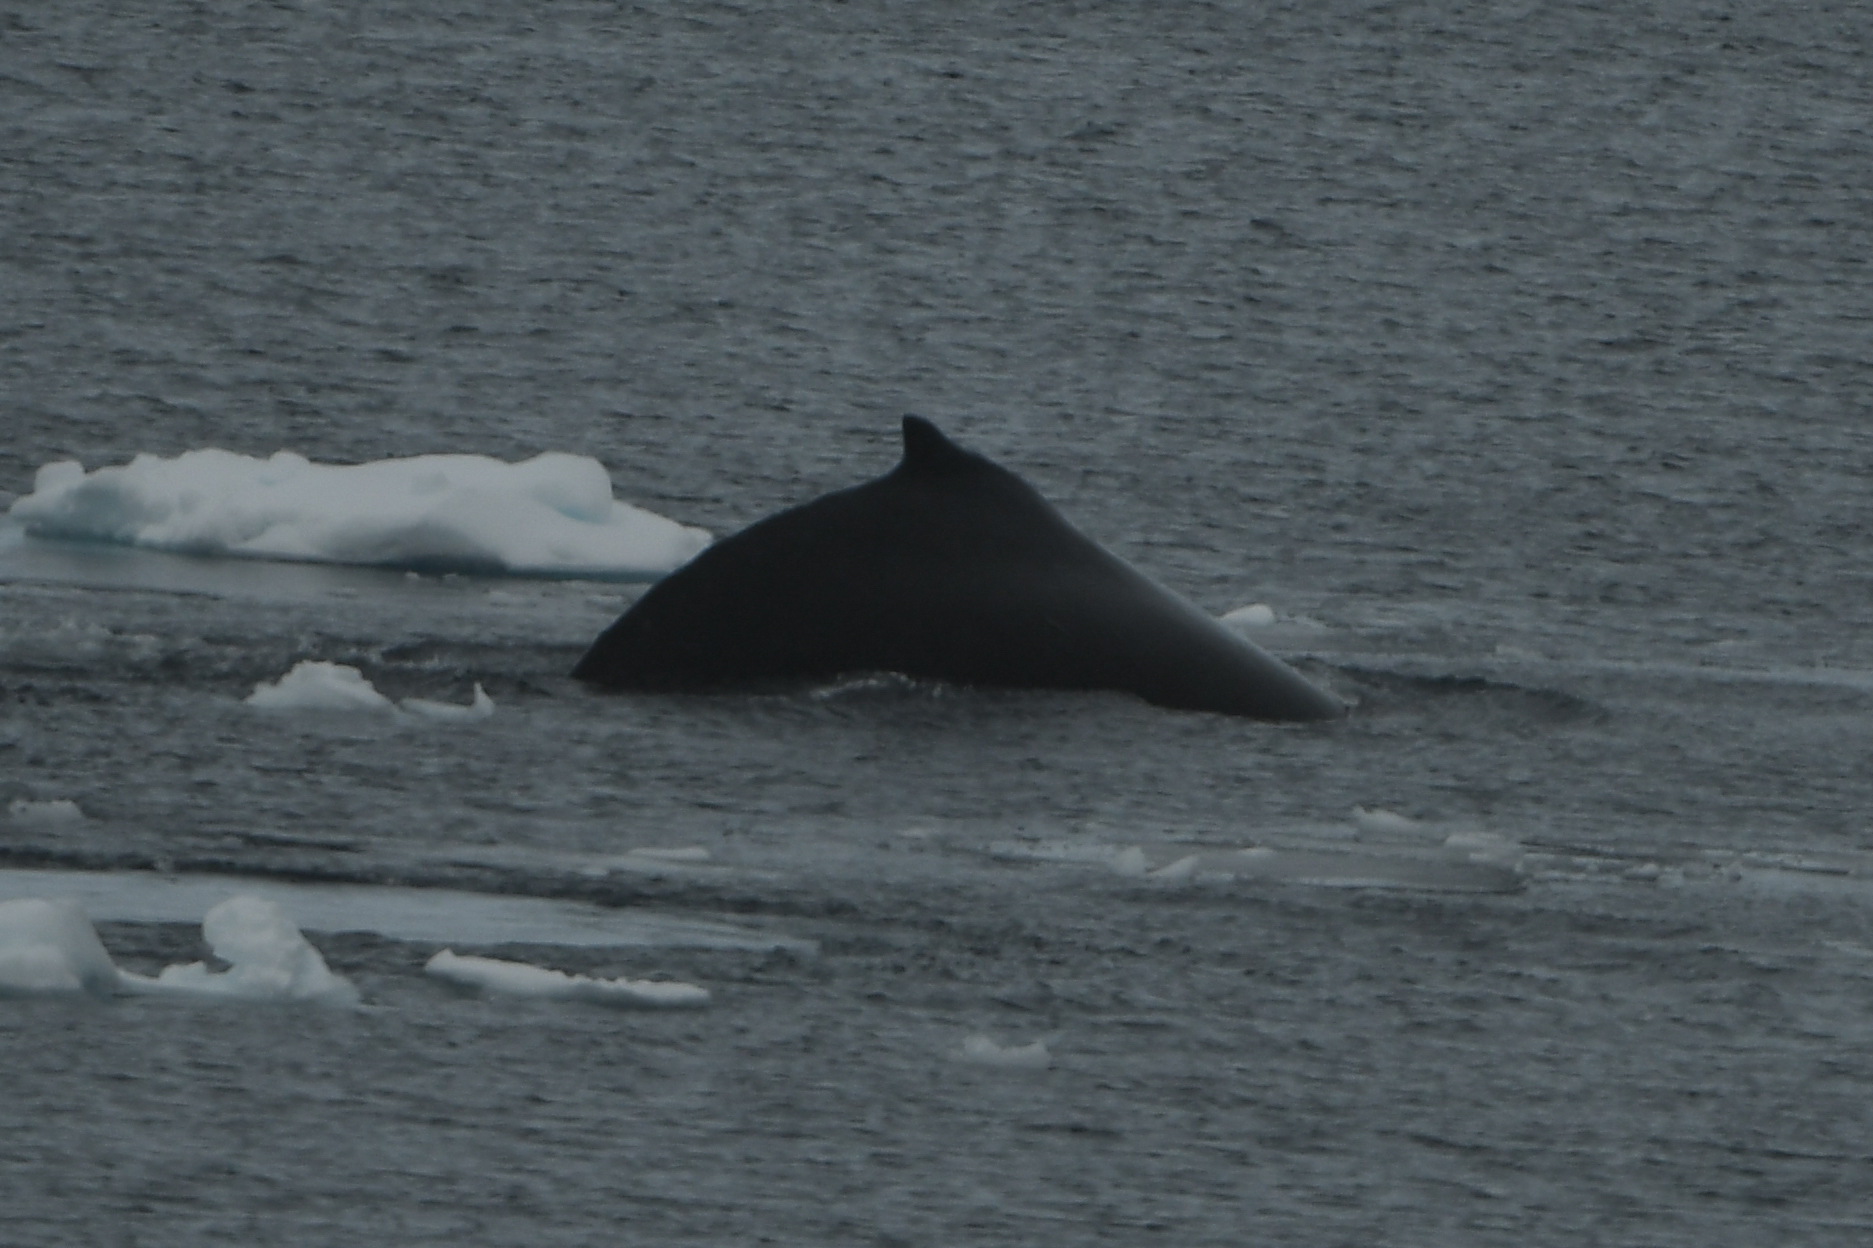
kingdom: Animalia
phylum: Chordata
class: Mammalia
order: Cetacea
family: Balaenopteridae
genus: Megaptera
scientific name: Megaptera novaeangliae
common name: Humpback whale
